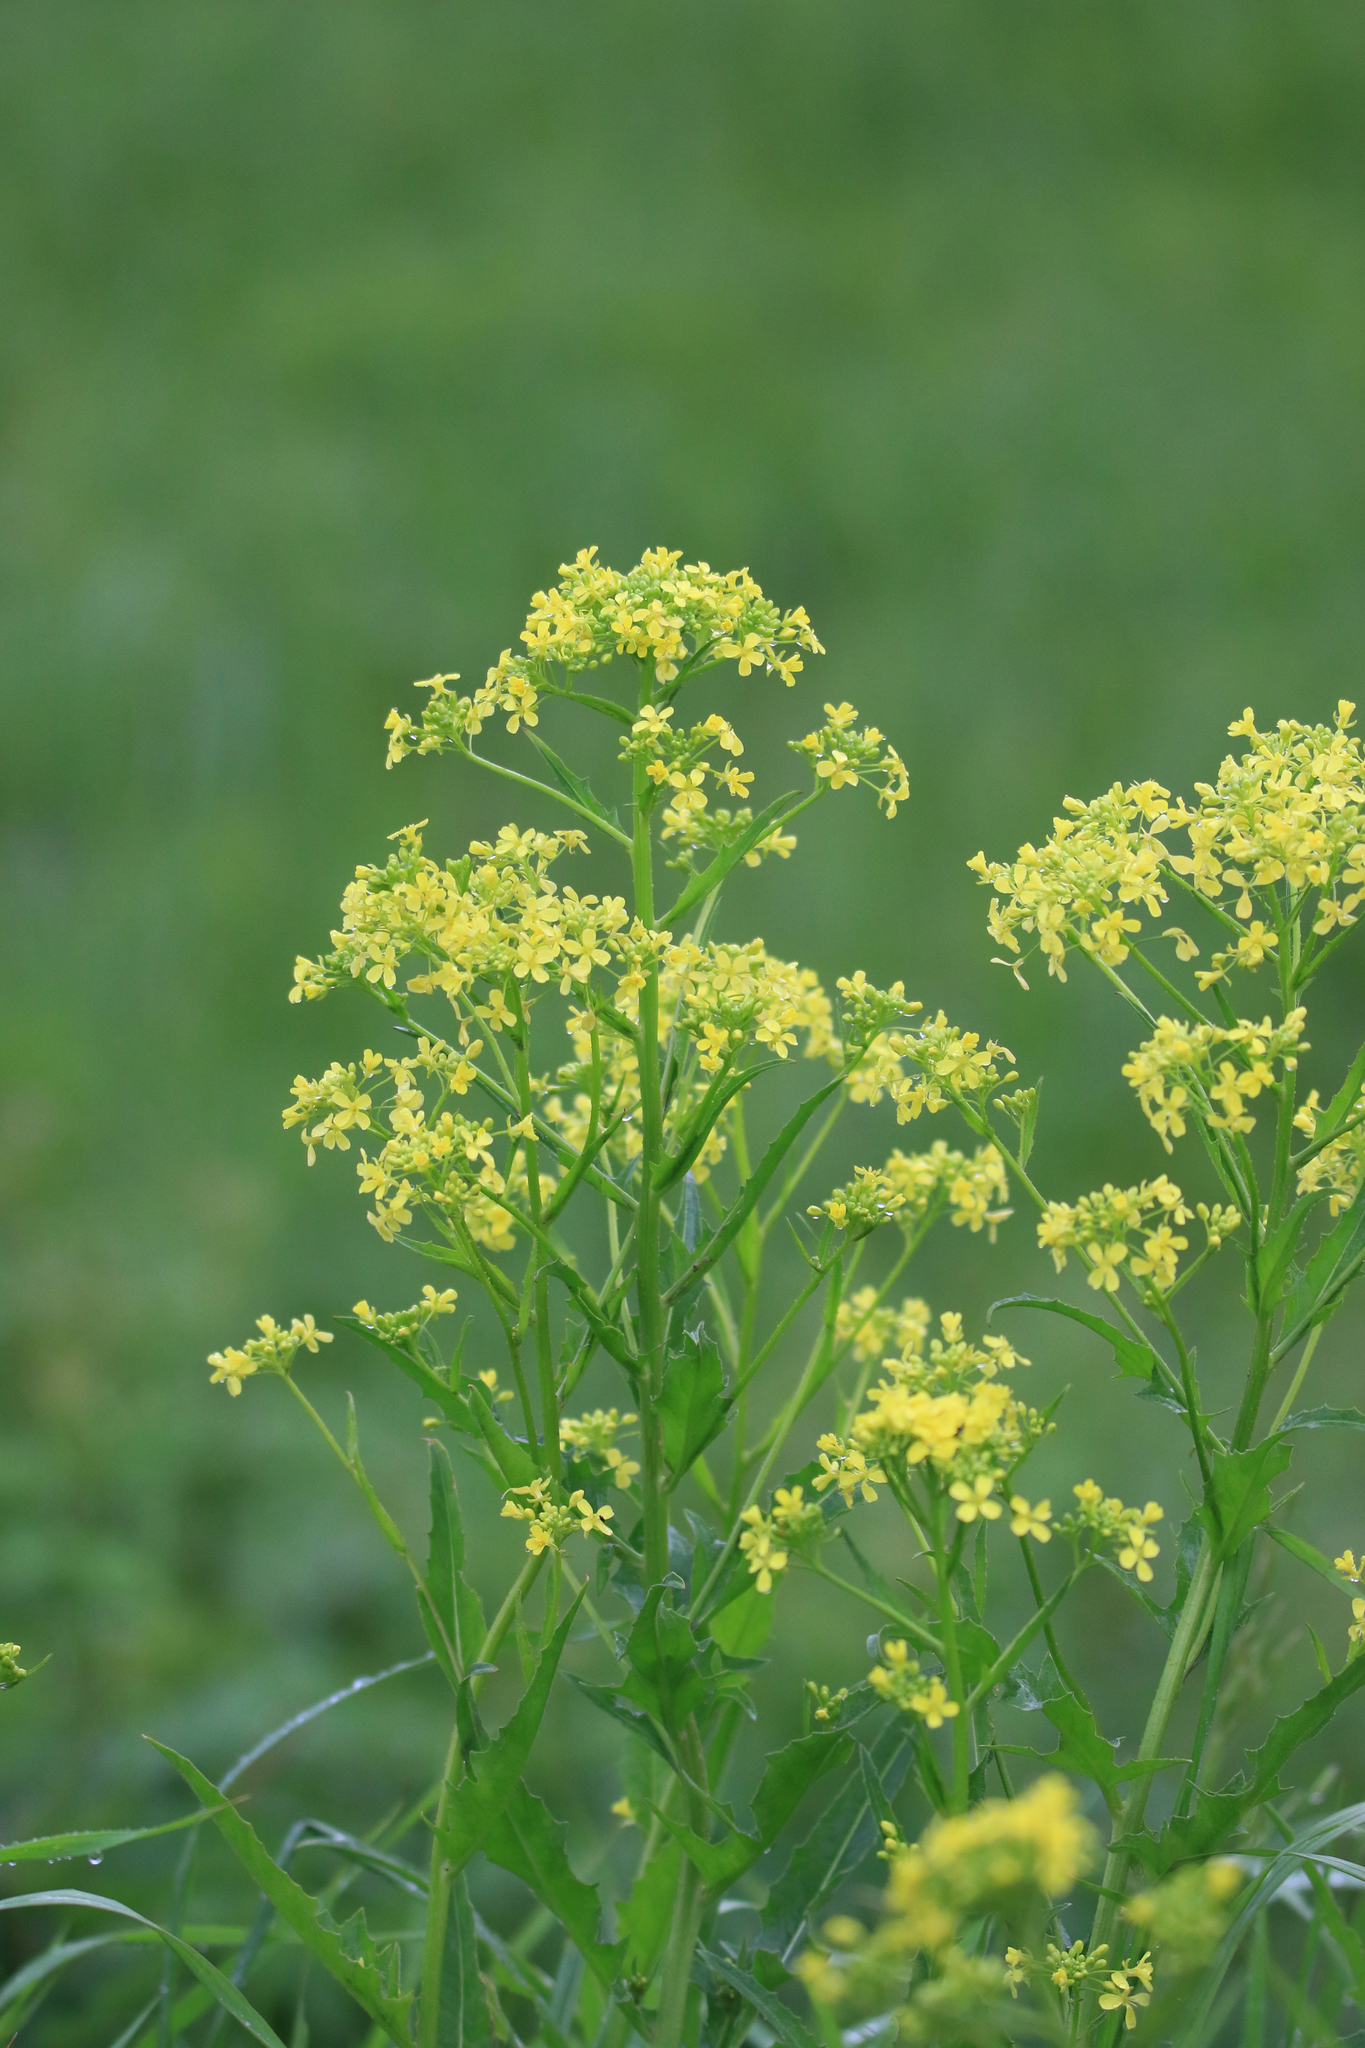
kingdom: Plantae
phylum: Tracheophyta
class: Magnoliopsida
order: Brassicales
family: Brassicaceae
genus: Bunias
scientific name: Bunias orientalis
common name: Warty-cabbage
